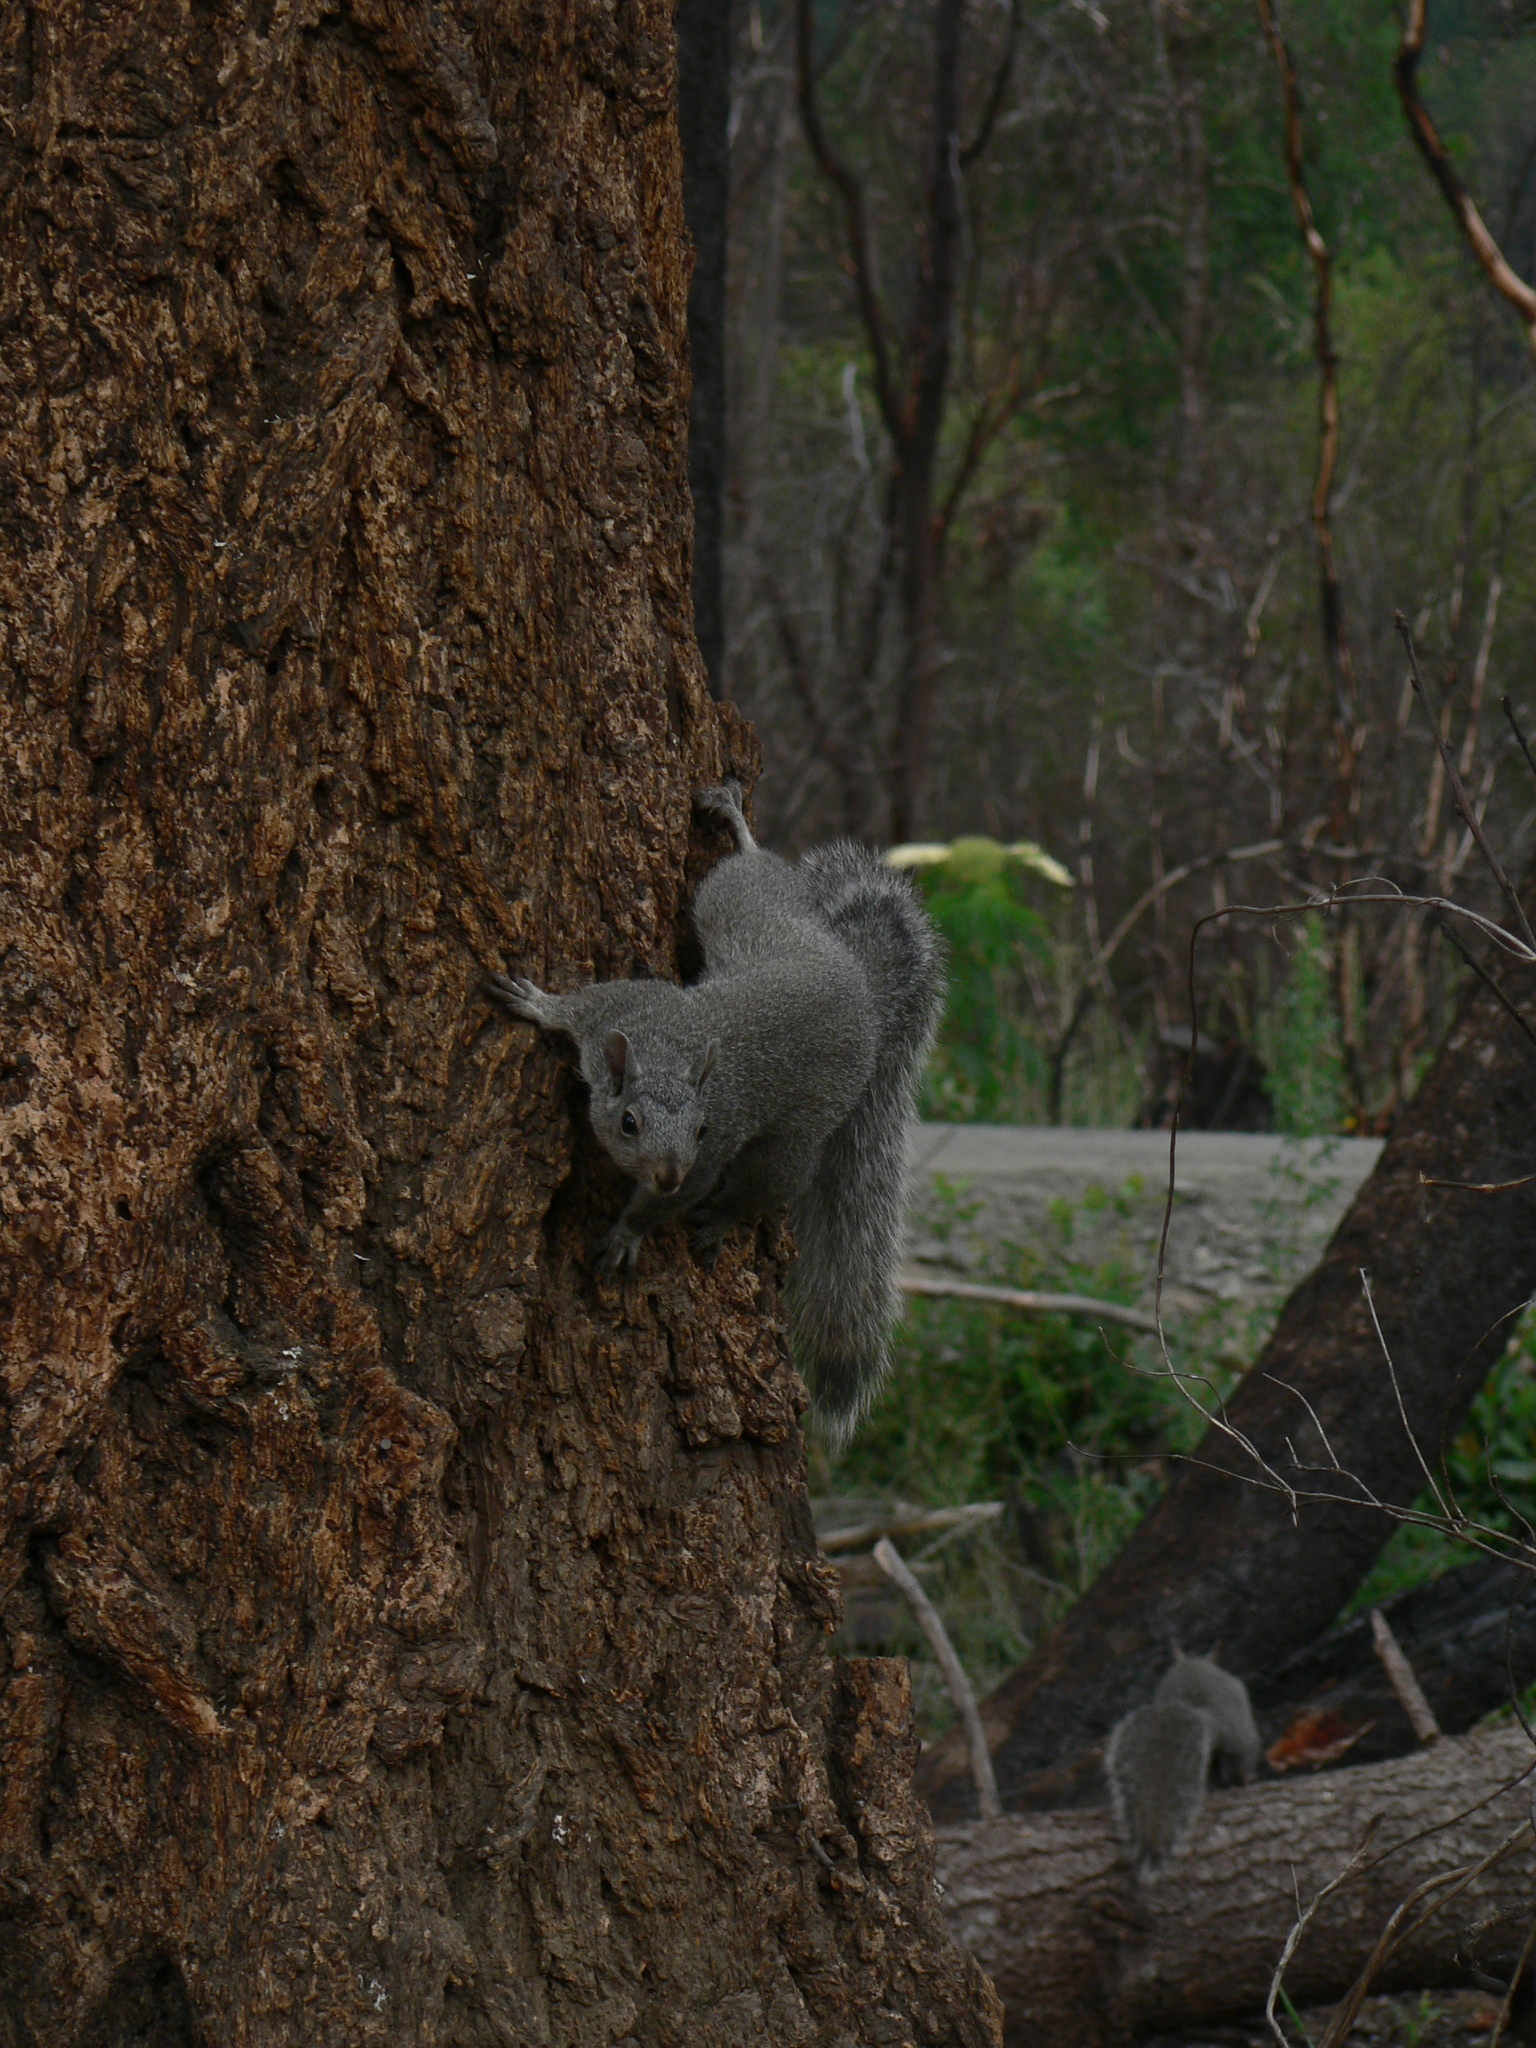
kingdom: Animalia
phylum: Chordata
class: Mammalia
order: Rodentia
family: Sciuridae
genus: Sciurus
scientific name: Sciurus griseus
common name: Western gray squirrel
